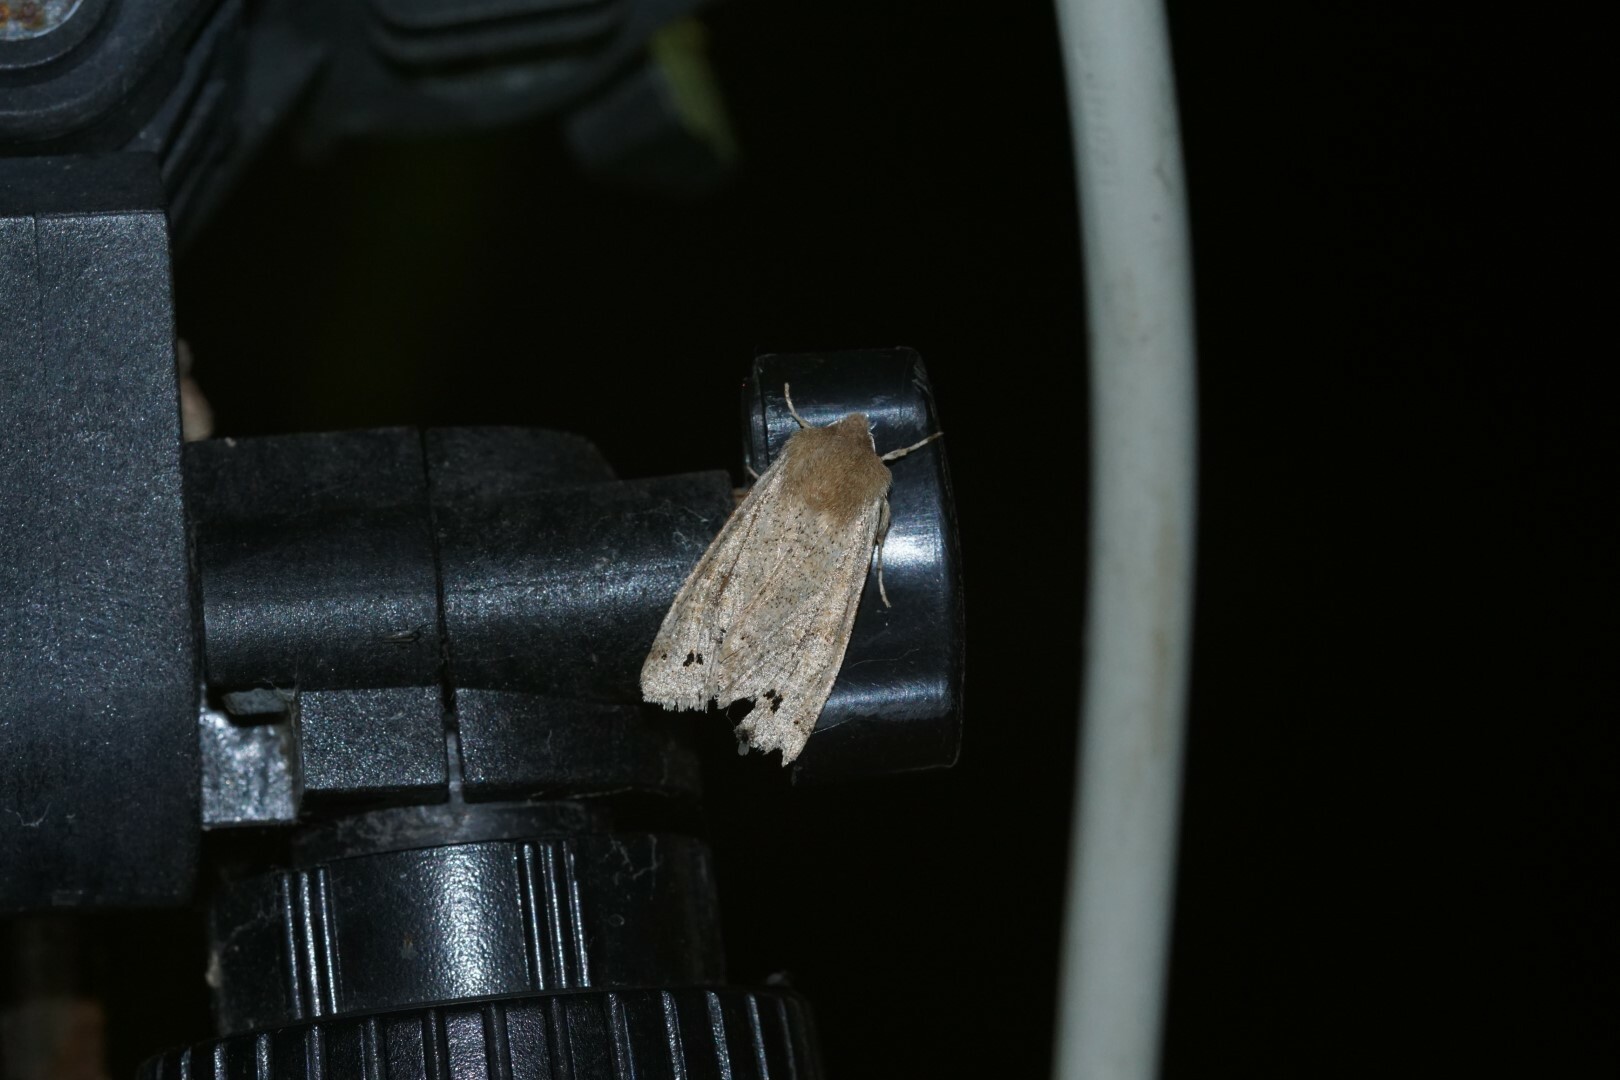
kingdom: Animalia
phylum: Arthropoda
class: Insecta
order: Lepidoptera
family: Noctuidae
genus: Anorthoa
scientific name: Anorthoa munda
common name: Twin-spotted quaker
